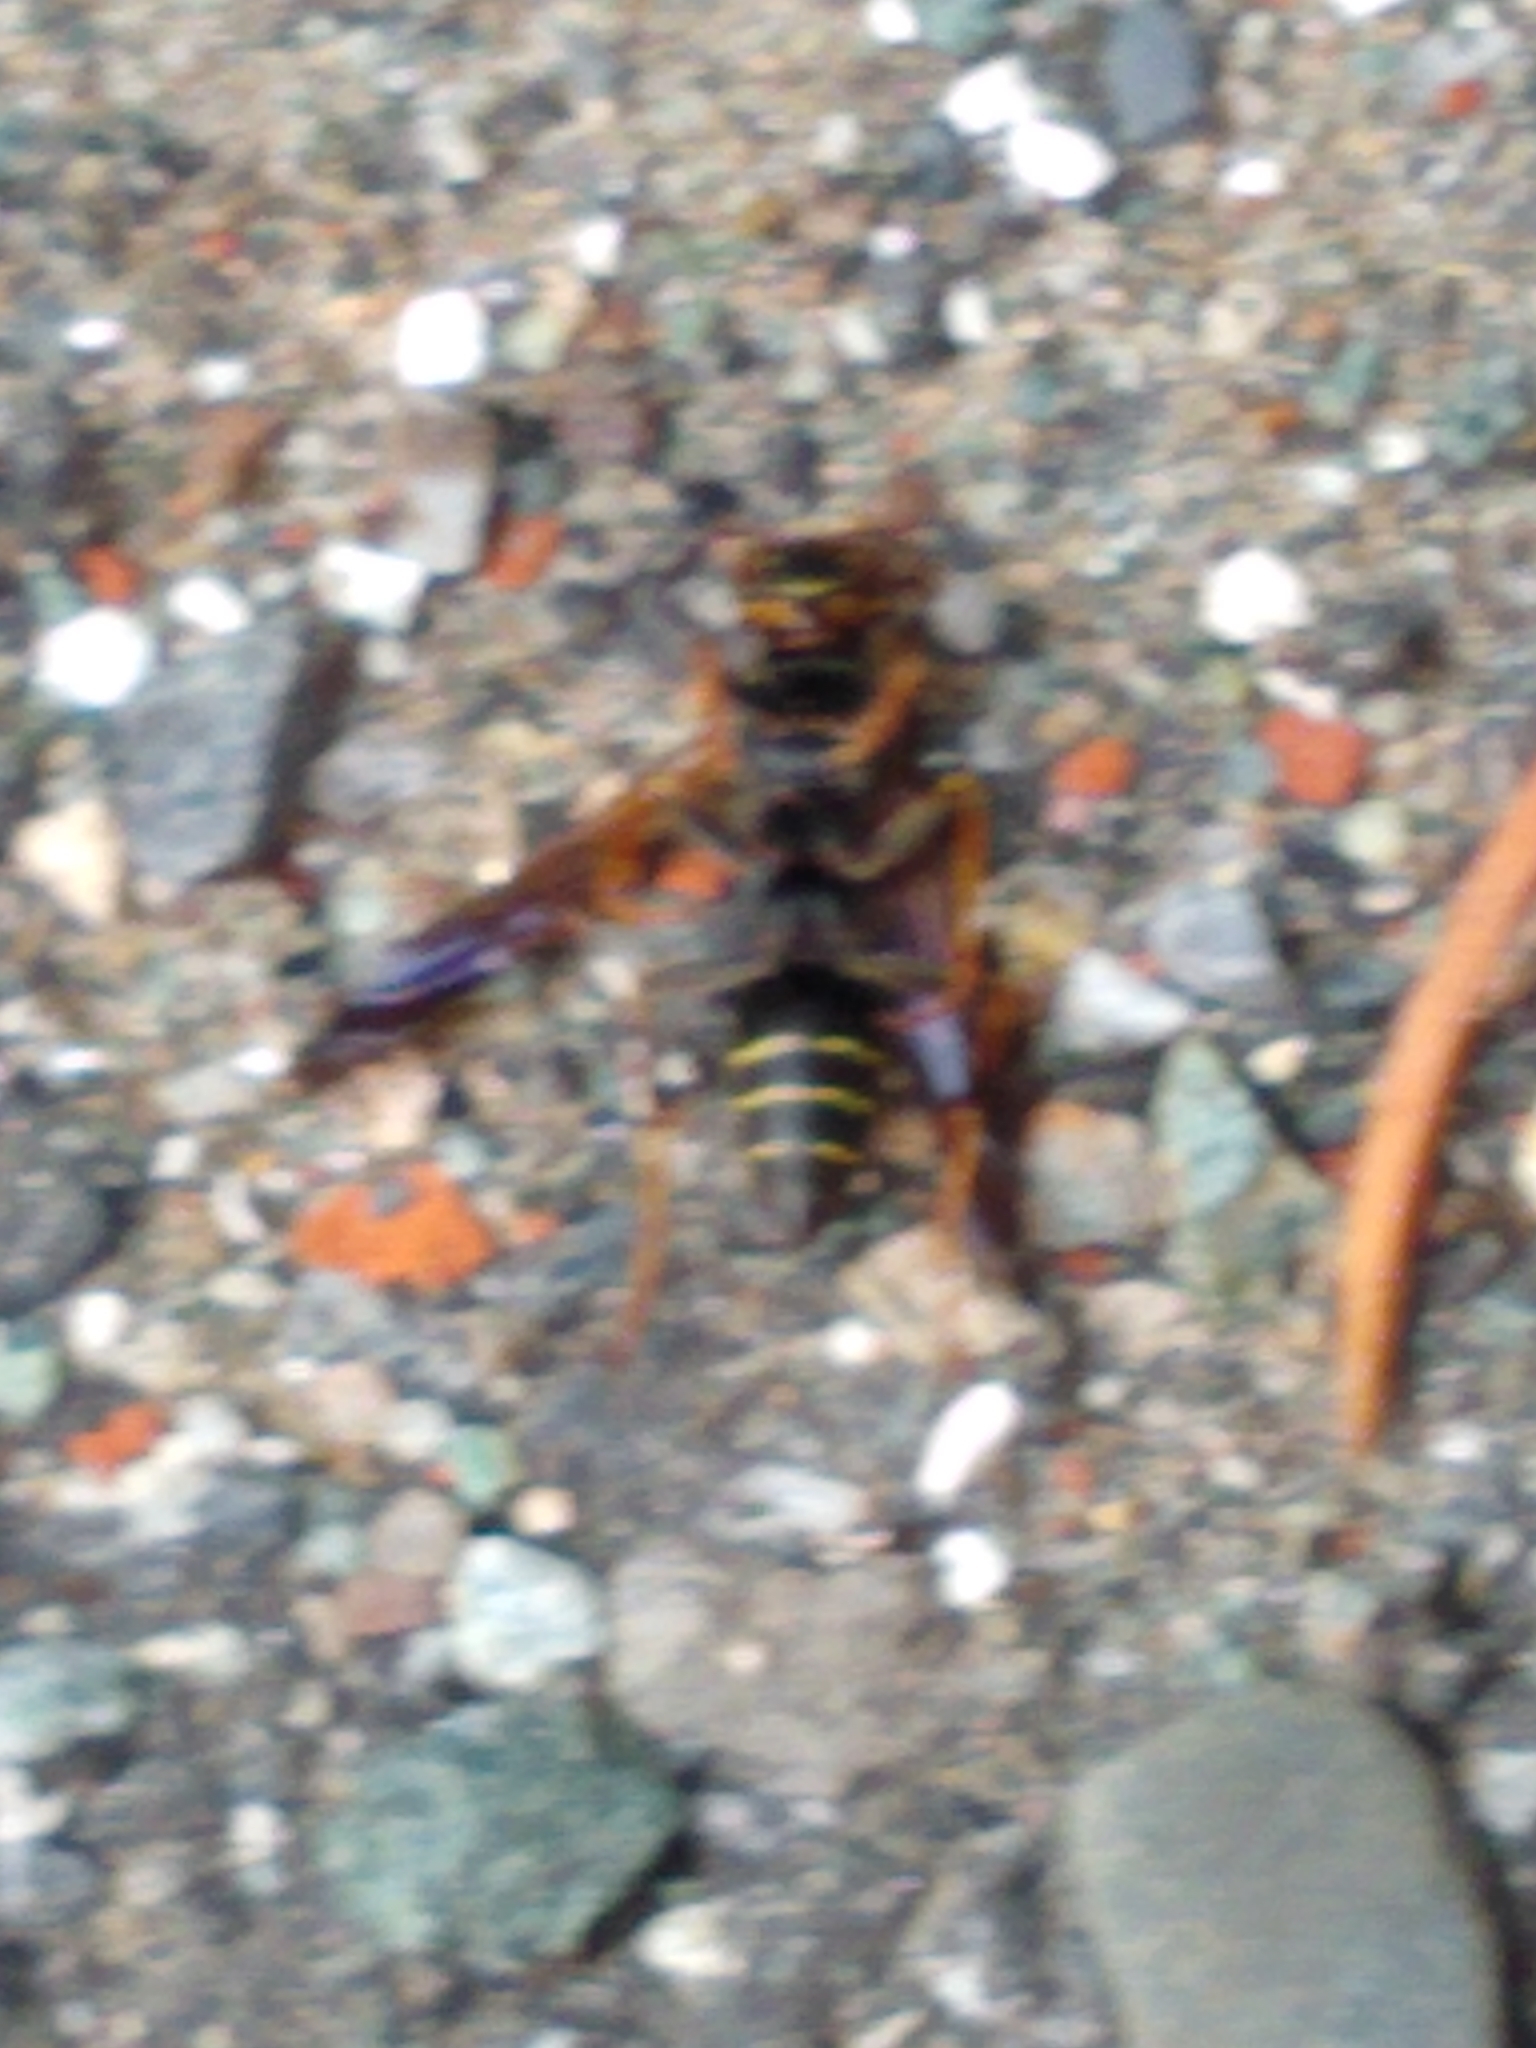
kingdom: Animalia
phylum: Arthropoda
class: Insecta
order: Hymenoptera
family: Eumenidae
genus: Polistes
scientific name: Polistes fuscatus
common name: Dark paper wasp
